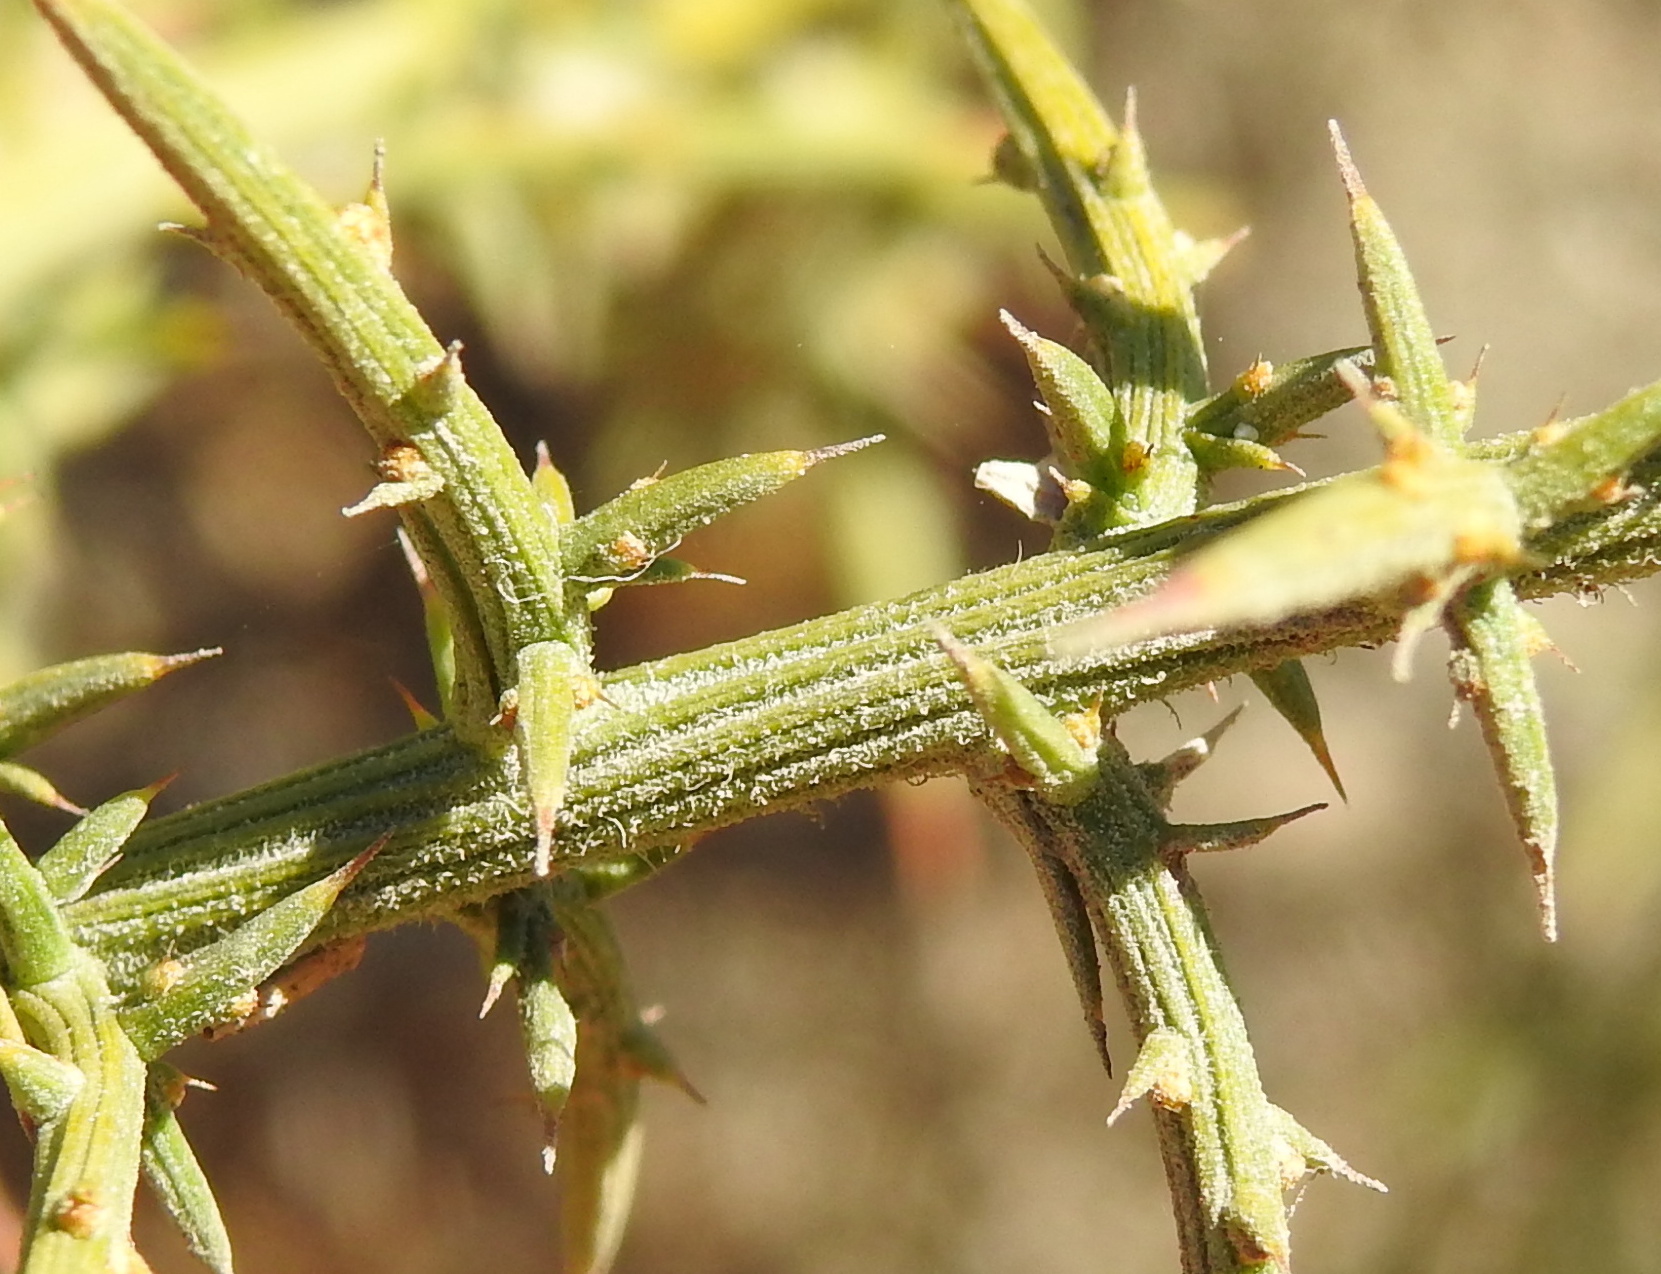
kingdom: Plantae
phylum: Tracheophyta
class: Magnoliopsida
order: Fabales
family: Fabaceae
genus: Ulex
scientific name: Ulex australis
